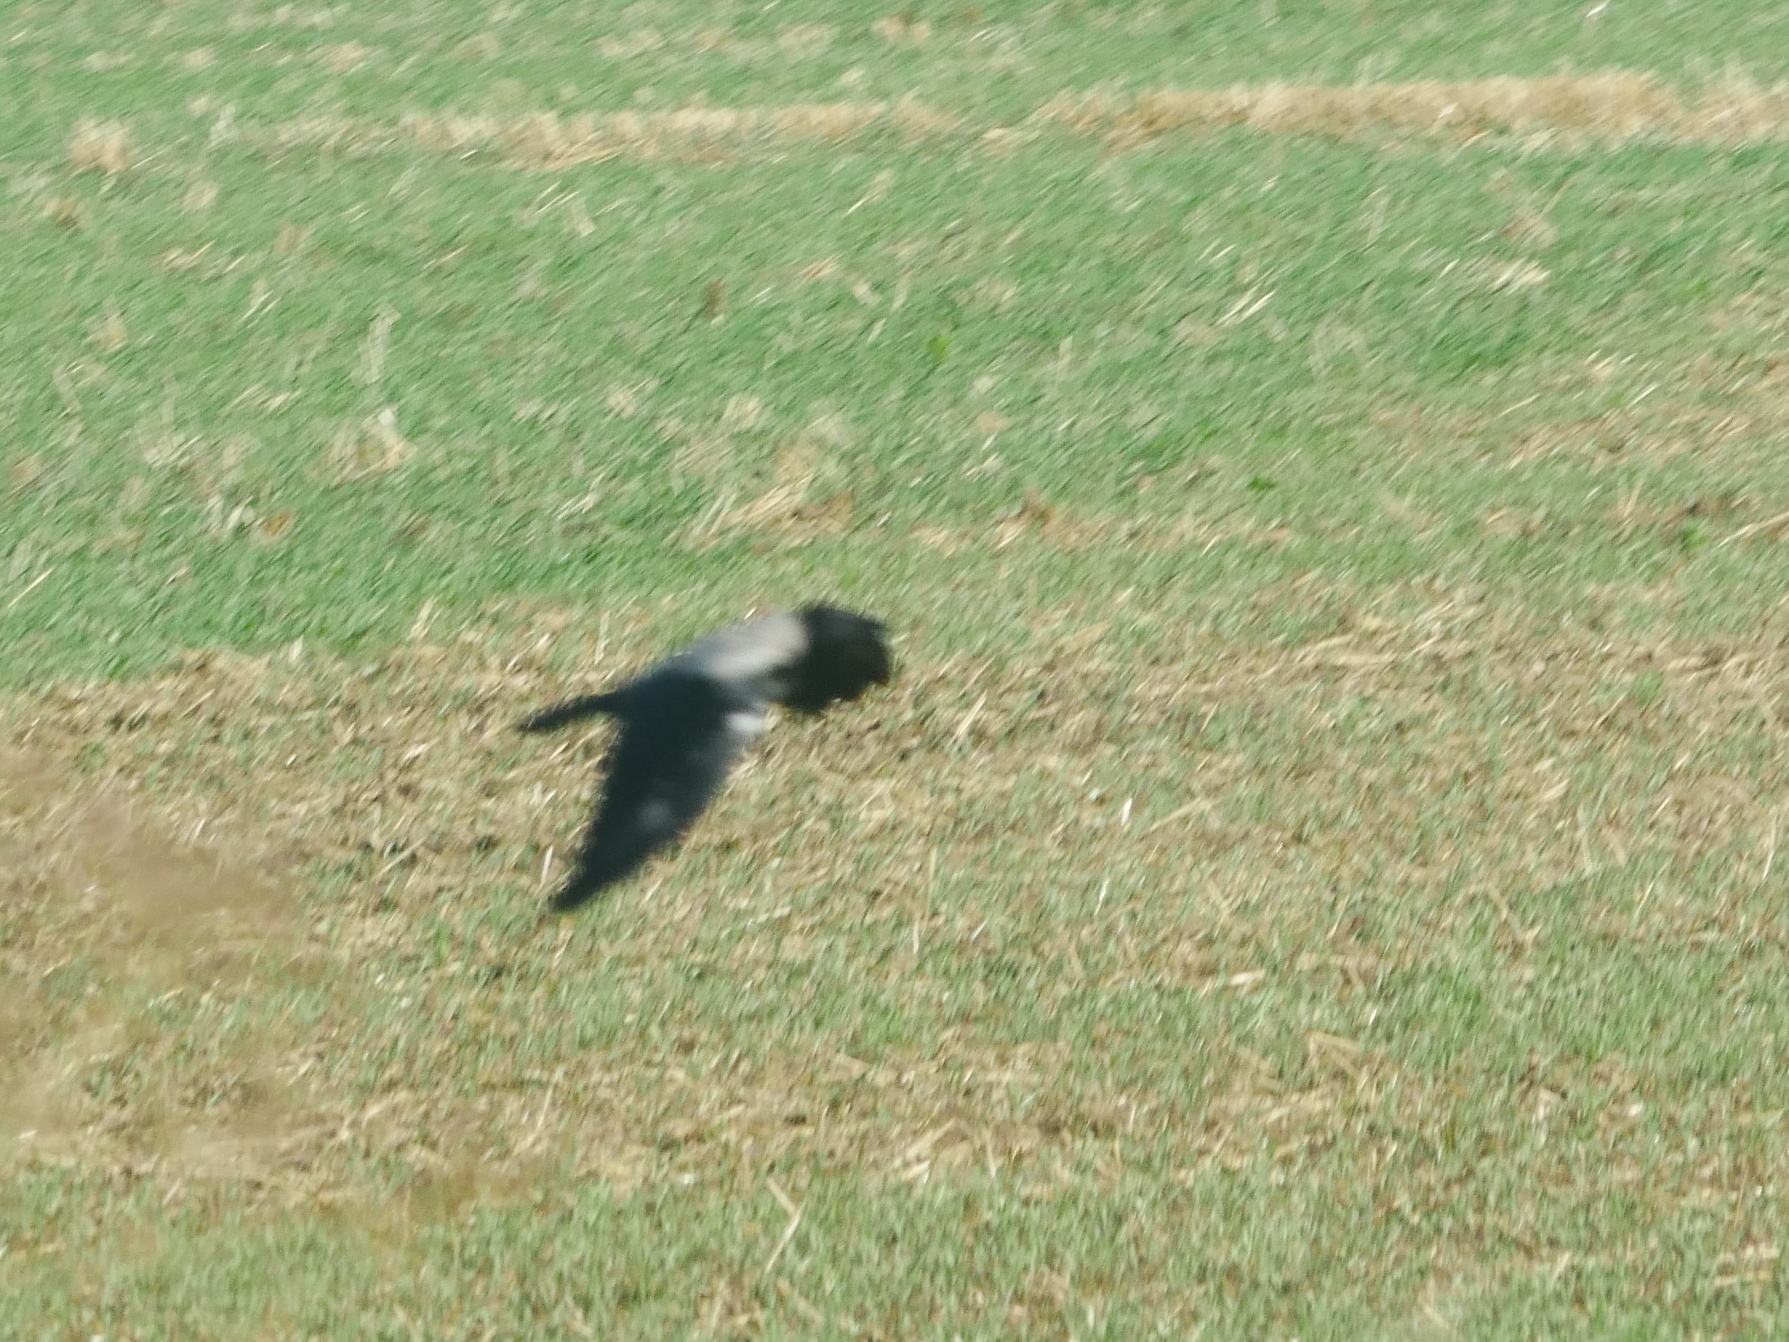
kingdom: Animalia
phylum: Chordata
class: Aves
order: Passeriformes
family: Corvidae
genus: Corvus
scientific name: Corvus cornix
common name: Hooded crow
